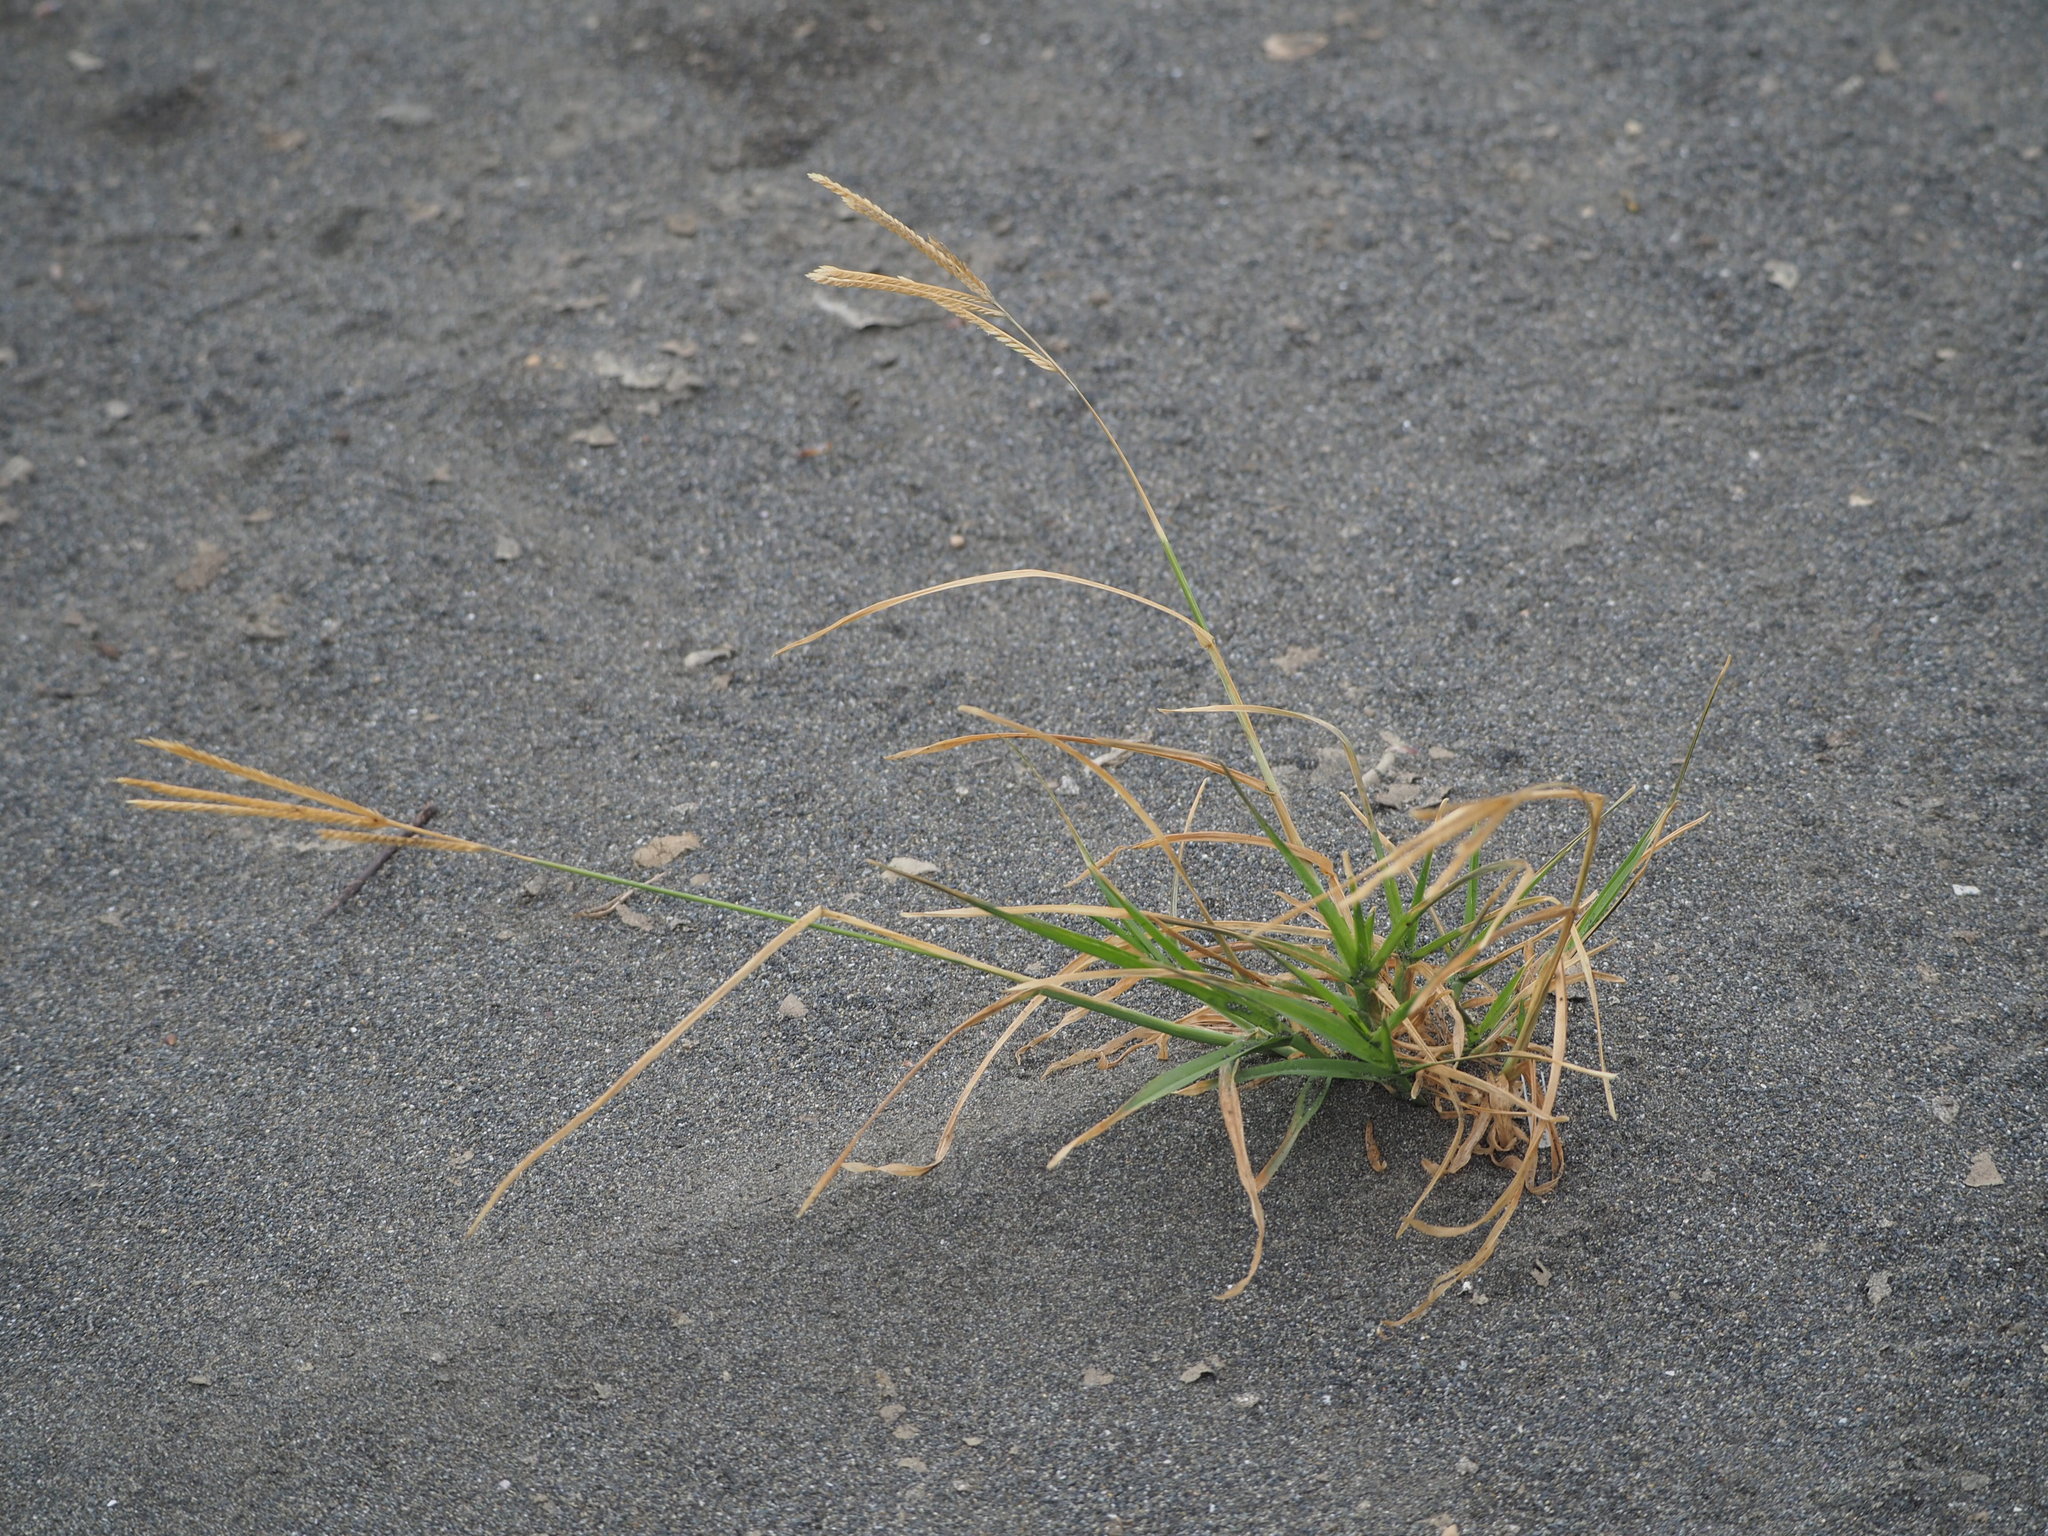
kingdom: Plantae
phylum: Tracheophyta
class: Liliopsida
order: Poales
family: Poaceae
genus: Eleusine
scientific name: Eleusine indica
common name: Yard-grass
